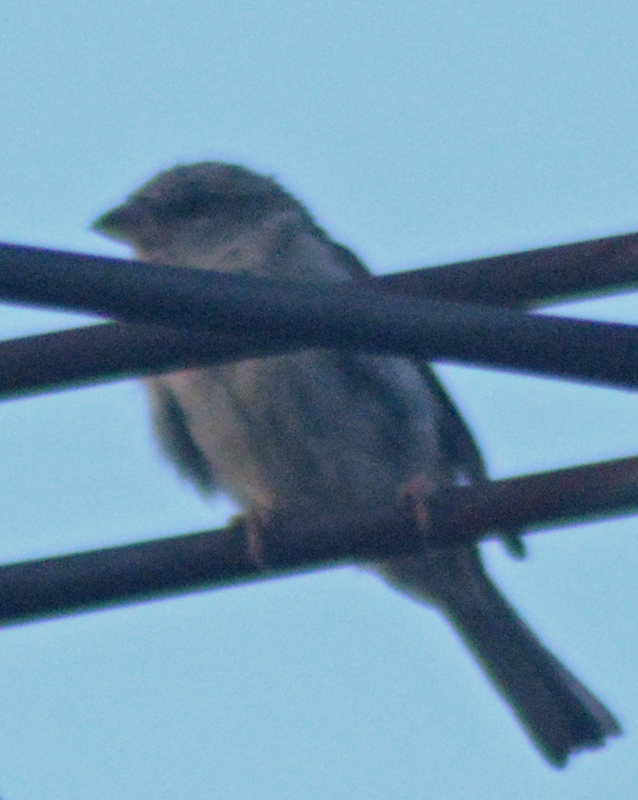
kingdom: Animalia
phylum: Chordata
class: Aves
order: Passeriformes
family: Passeridae
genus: Passer
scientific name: Passer domesticus
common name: House sparrow
